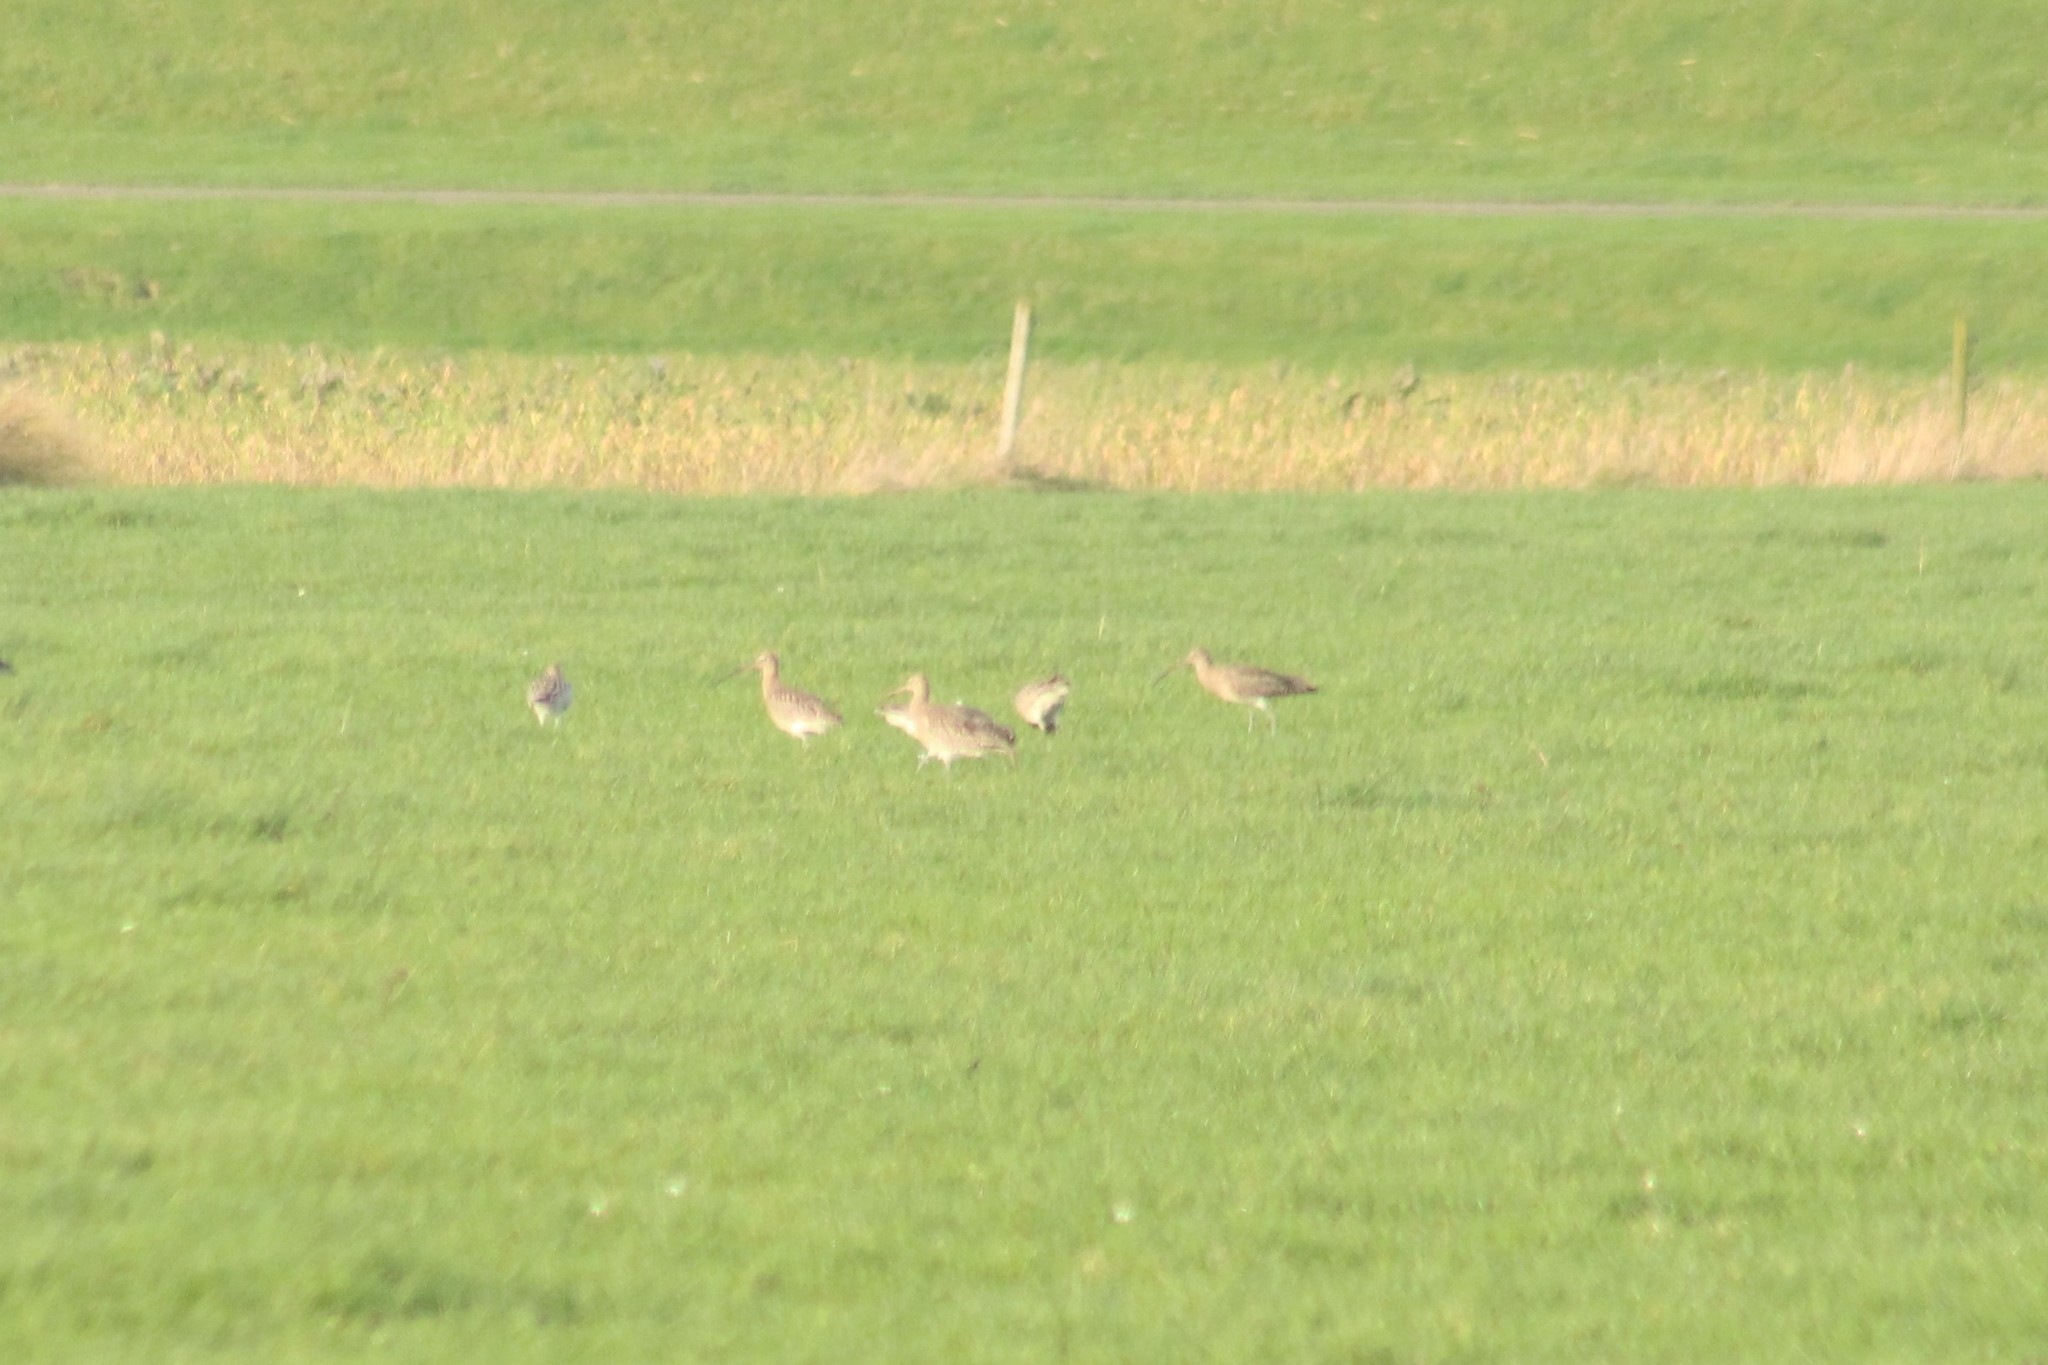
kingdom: Animalia
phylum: Chordata
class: Aves
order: Charadriiformes
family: Scolopacidae
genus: Numenius
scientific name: Numenius arquata
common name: Eurasian curlew
